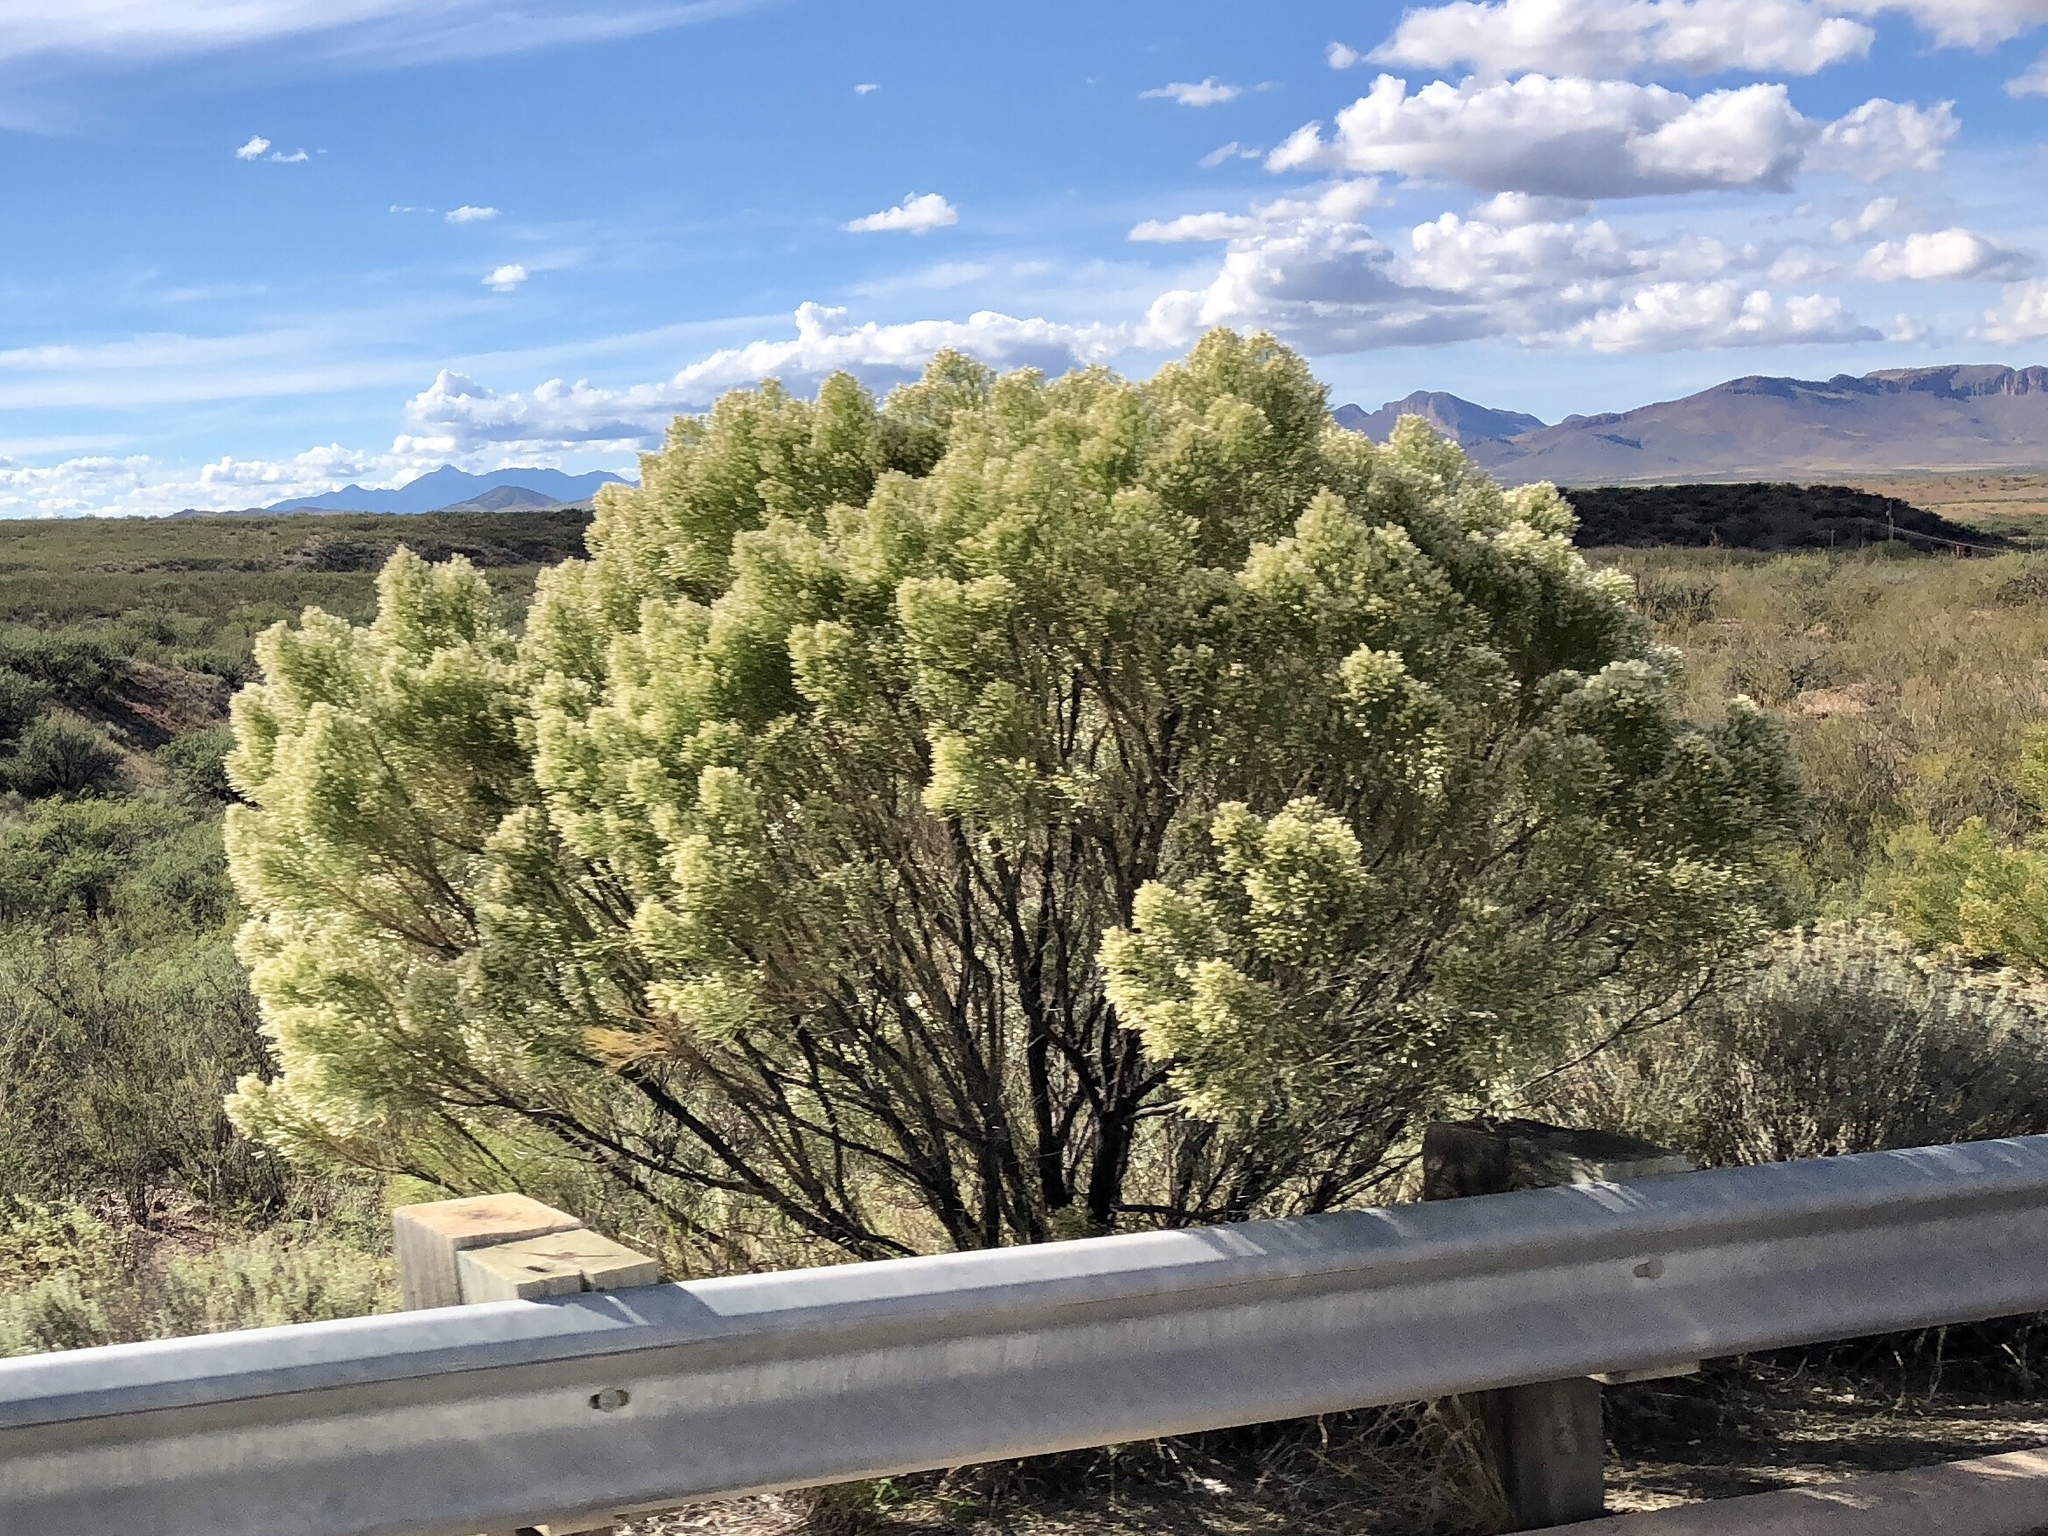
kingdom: Plantae
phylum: Tracheophyta
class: Magnoliopsida
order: Asterales
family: Asteraceae
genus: Baccharis
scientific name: Baccharis sarothroides
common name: Desert-broom
